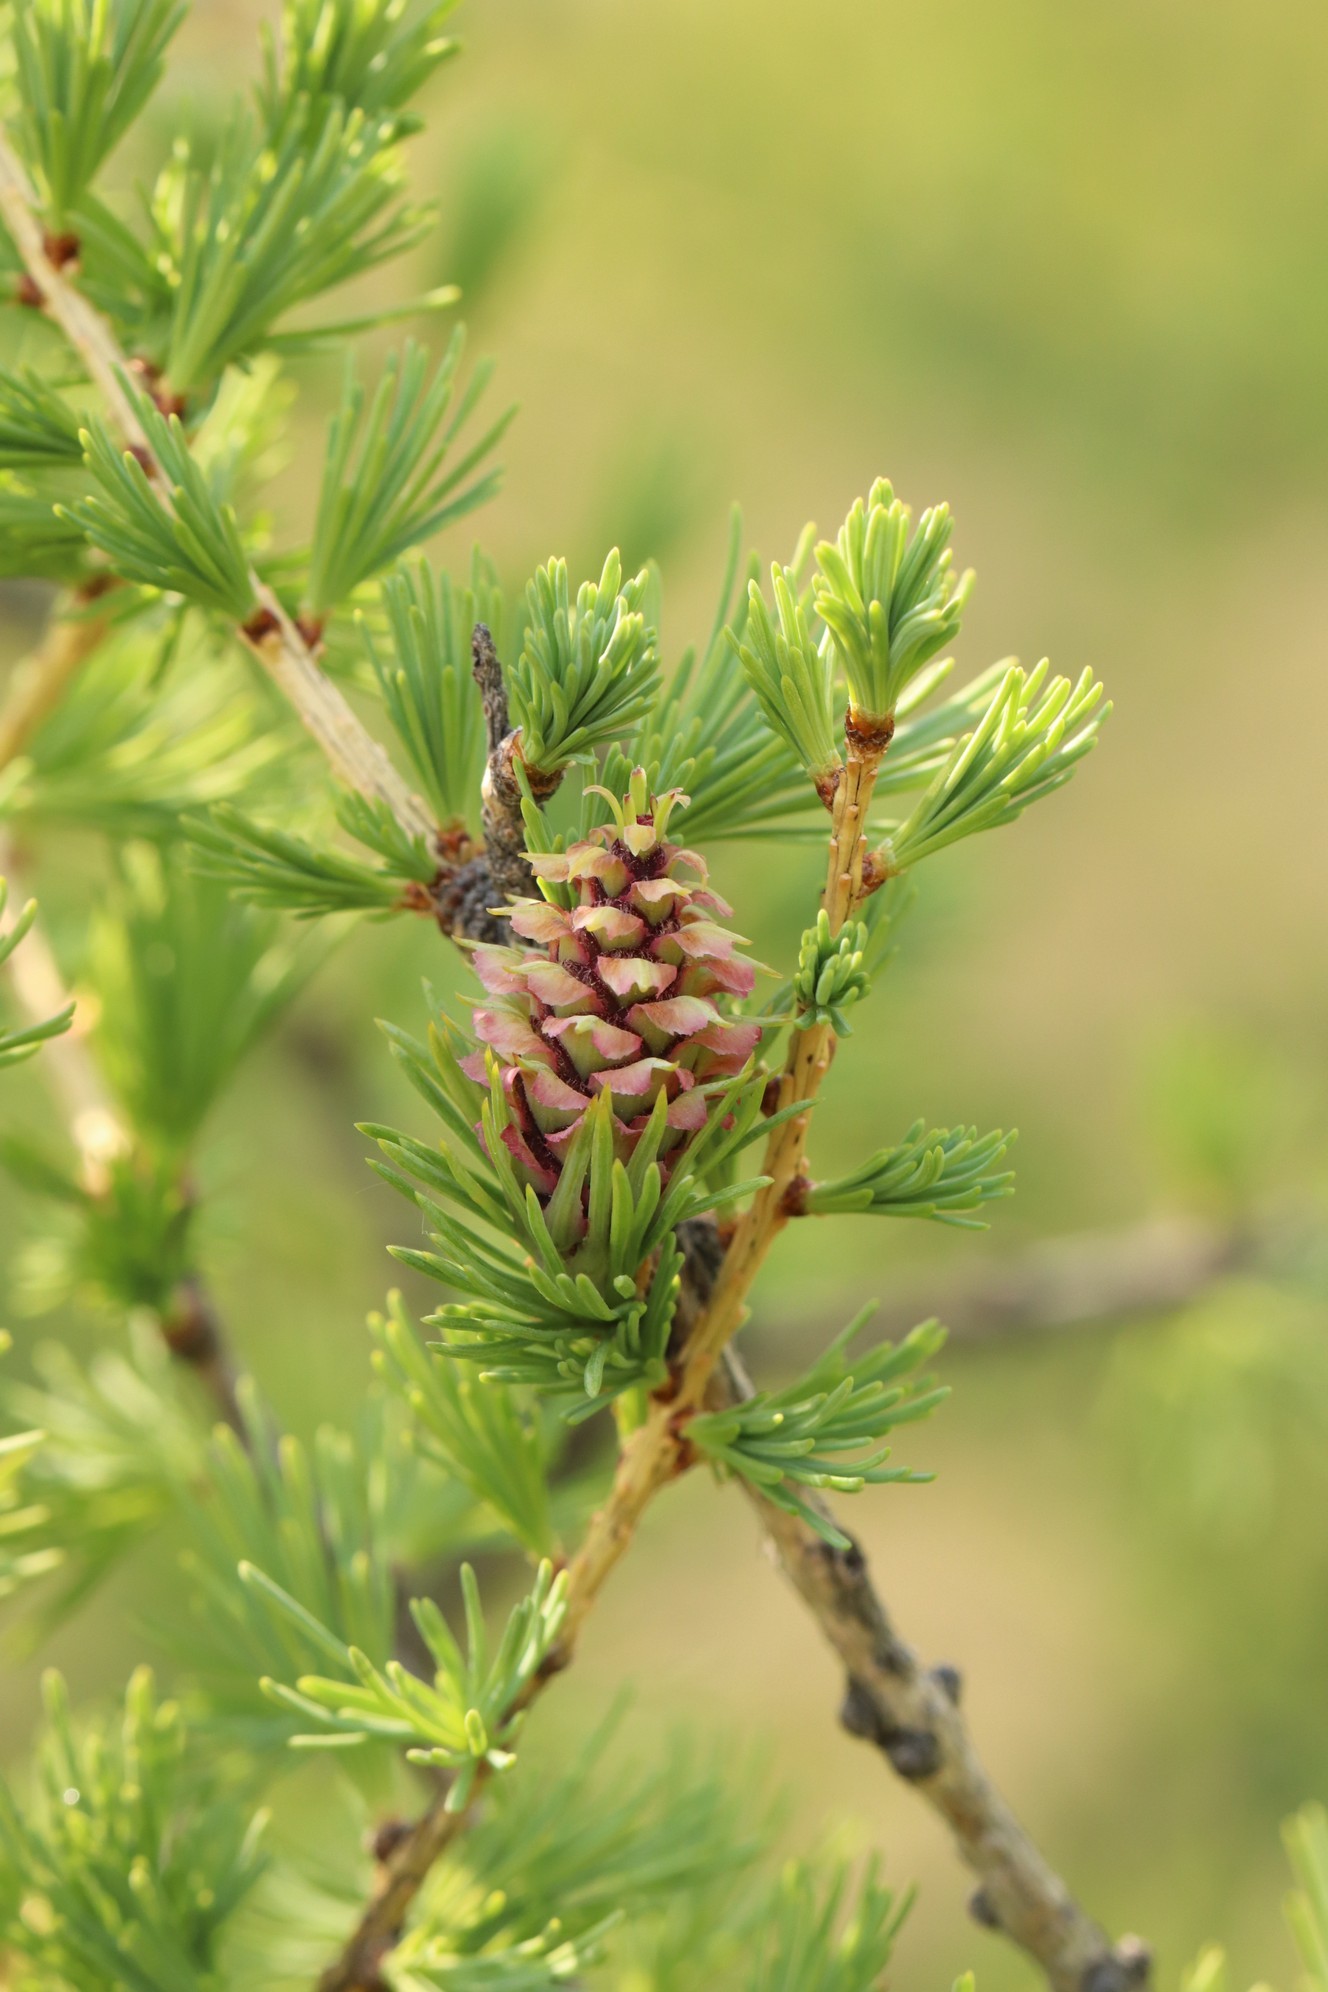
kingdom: Plantae
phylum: Tracheophyta
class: Pinopsida
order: Pinales
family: Pinaceae
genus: Larix
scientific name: Larix sibirica
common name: Siberian larch
